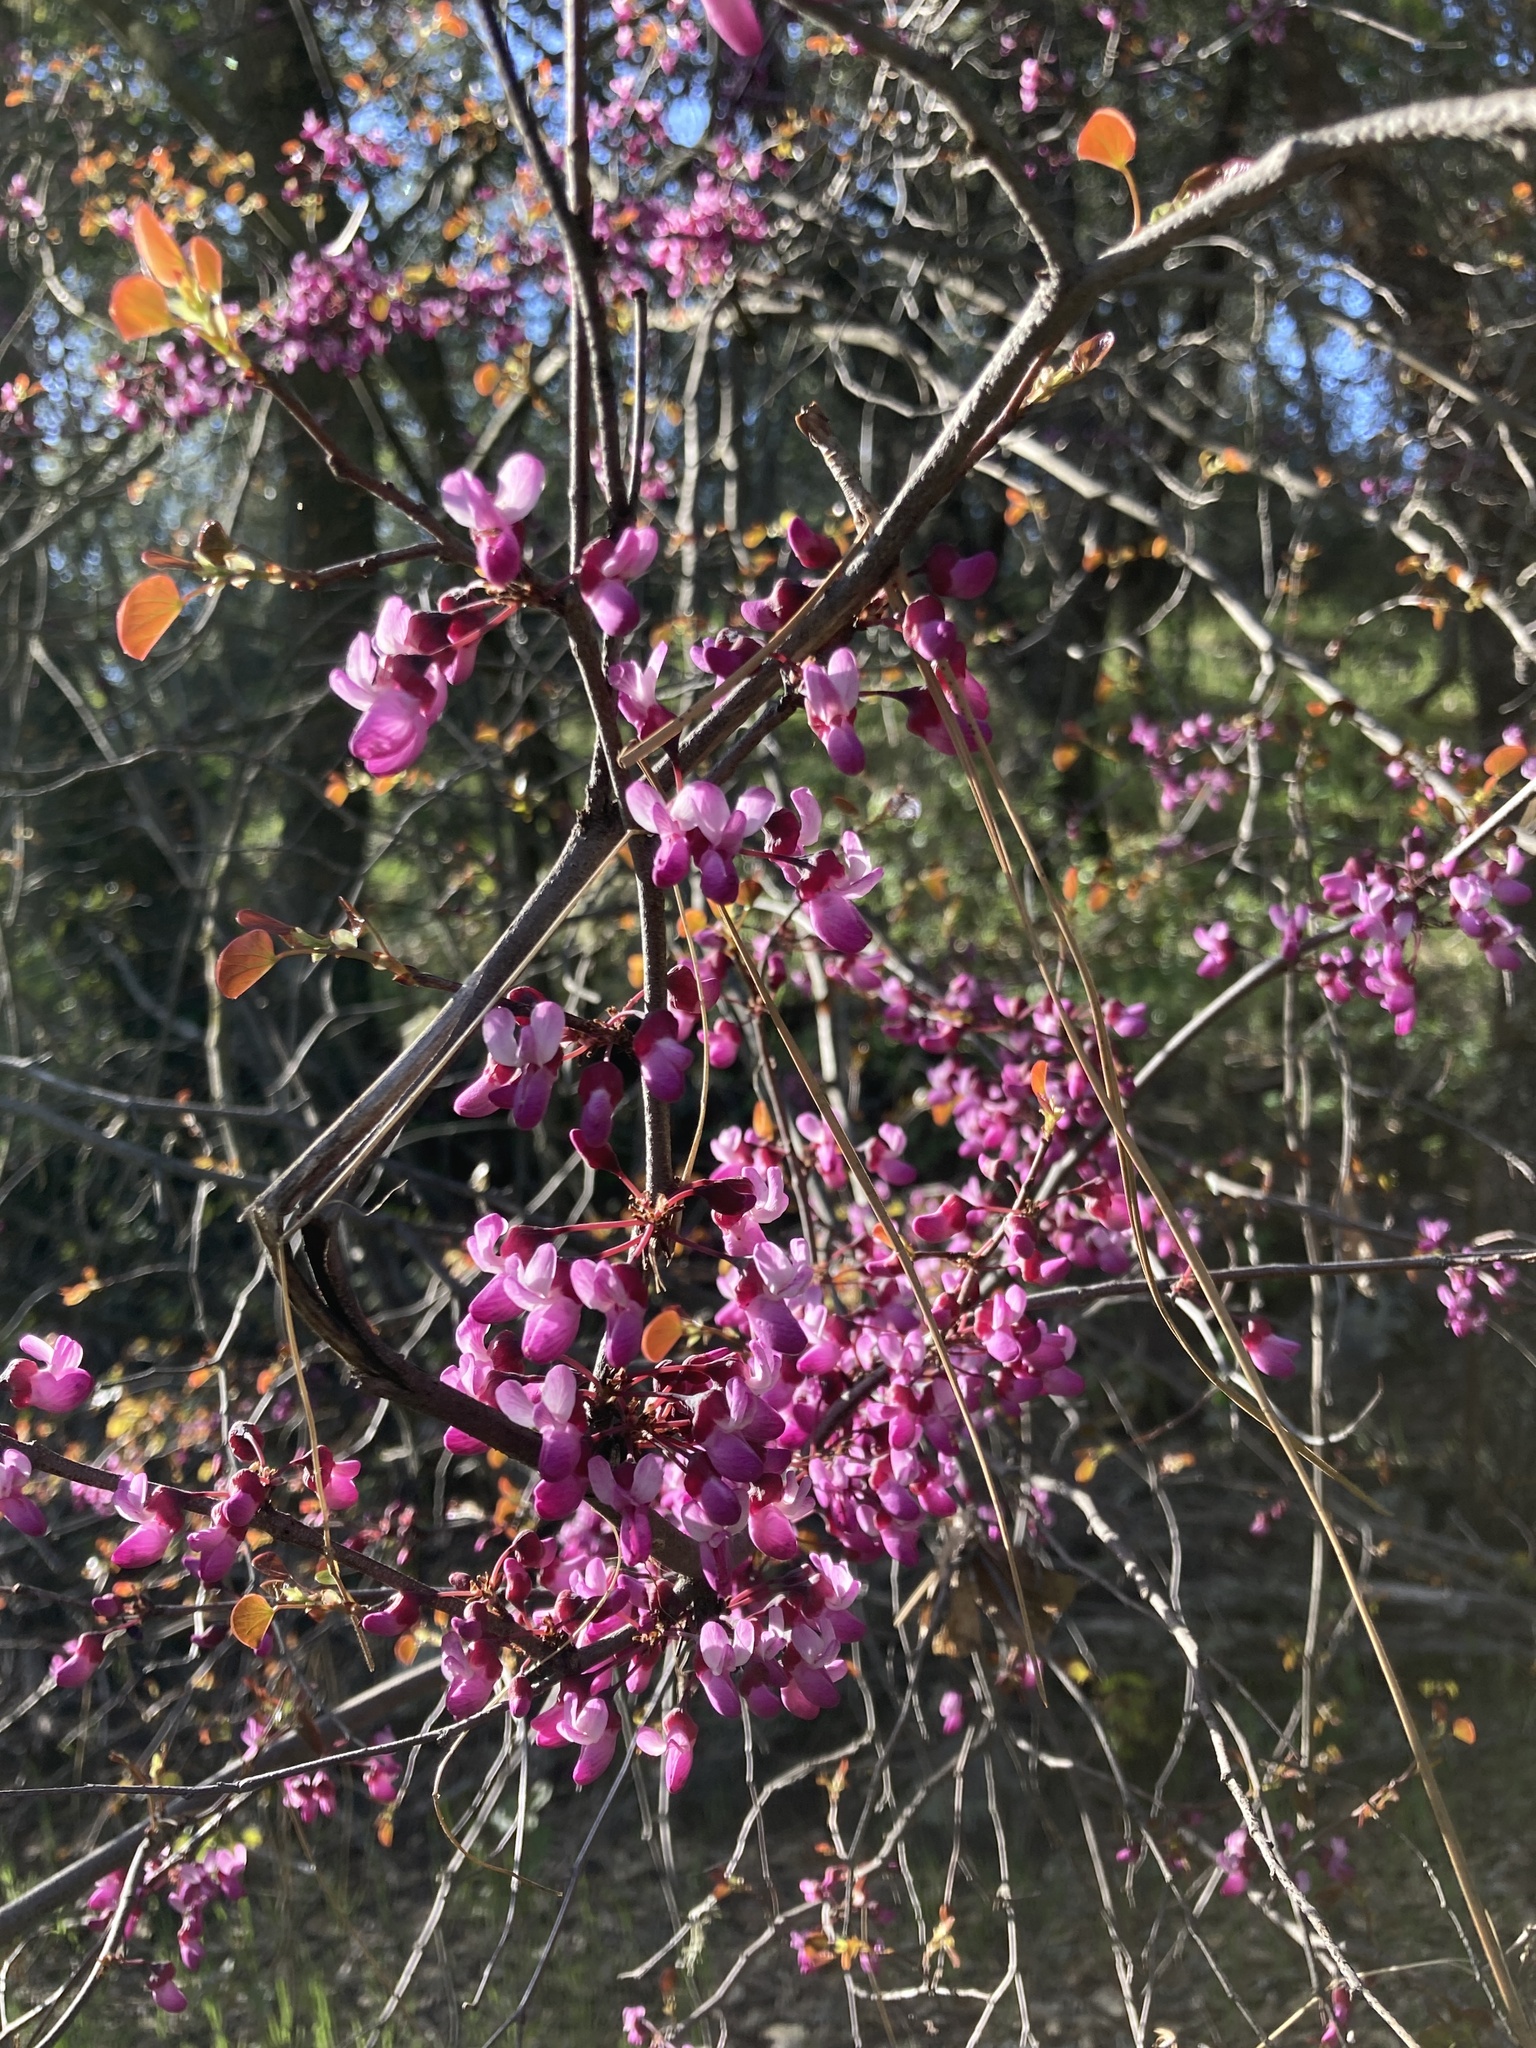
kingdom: Plantae
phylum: Tracheophyta
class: Magnoliopsida
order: Fabales
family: Fabaceae
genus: Cercis
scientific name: Cercis occidentalis
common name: California redbud
